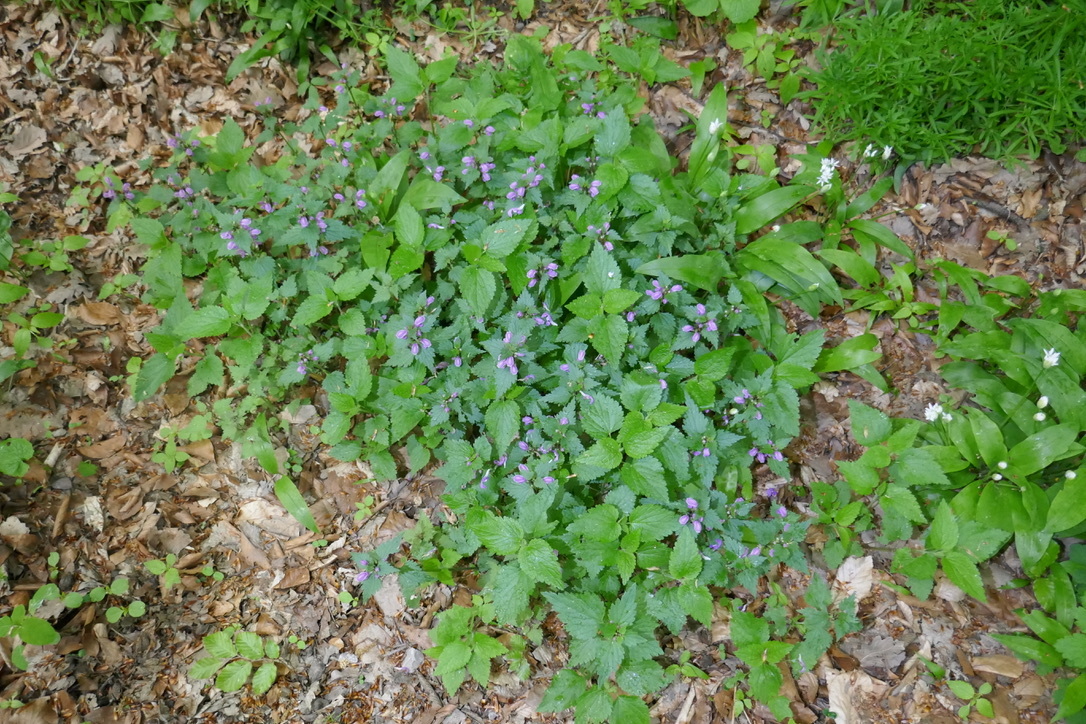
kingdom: Plantae
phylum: Tracheophyta
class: Magnoliopsida
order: Lamiales
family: Lamiaceae
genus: Lamium
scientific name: Lamium maculatum
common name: Spotted dead-nettle
